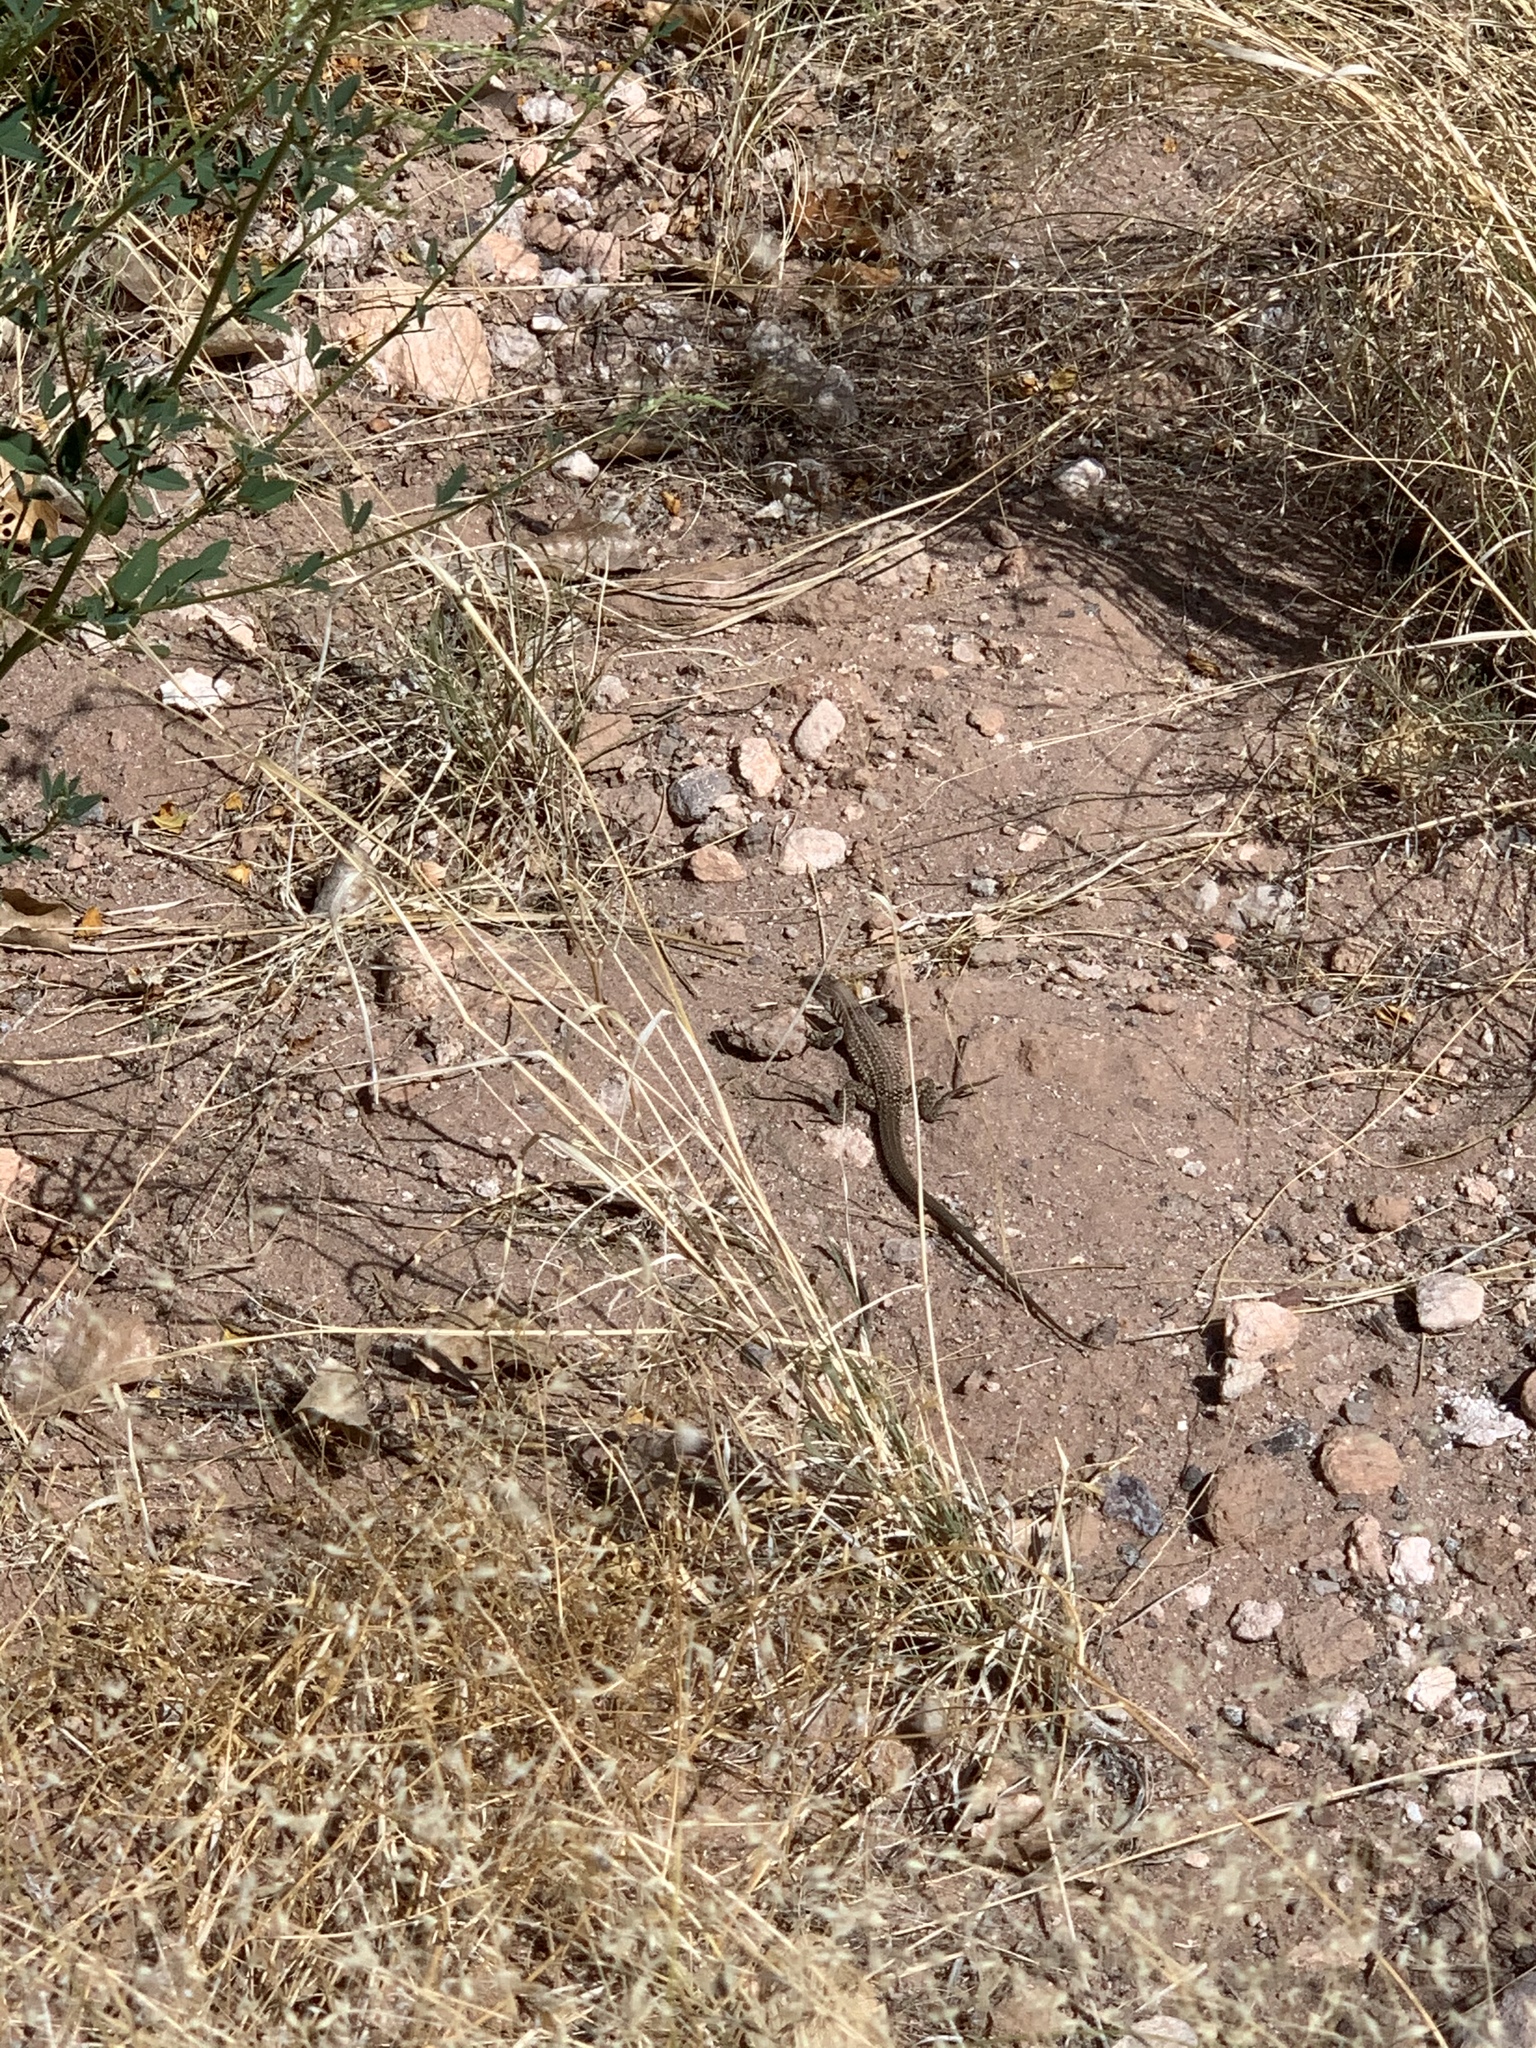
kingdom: Animalia
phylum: Chordata
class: Squamata
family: Teiidae
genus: Aspidoscelis
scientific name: Aspidoscelis exsanguis
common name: Chihuahuan spotted whiptail
